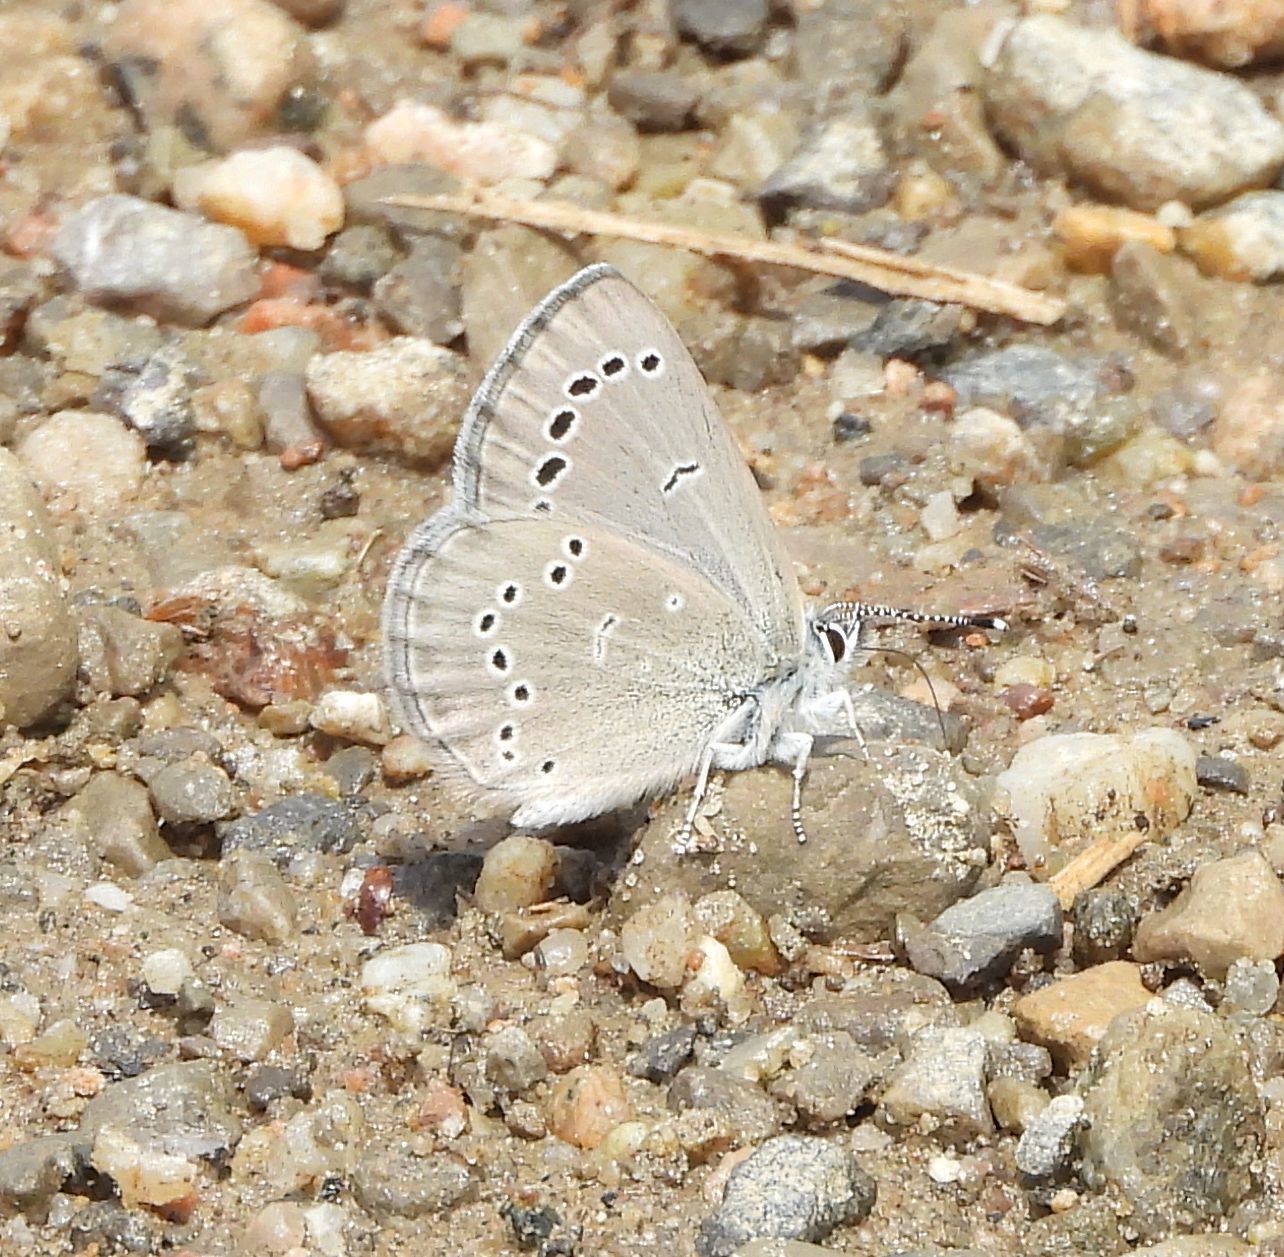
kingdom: Animalia
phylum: Arthropoda
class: Insecta
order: Lepidoptera
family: Lycaenidae
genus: Glaucopsyche
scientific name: Glaucopsyche lygdamus
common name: Silvery blue
